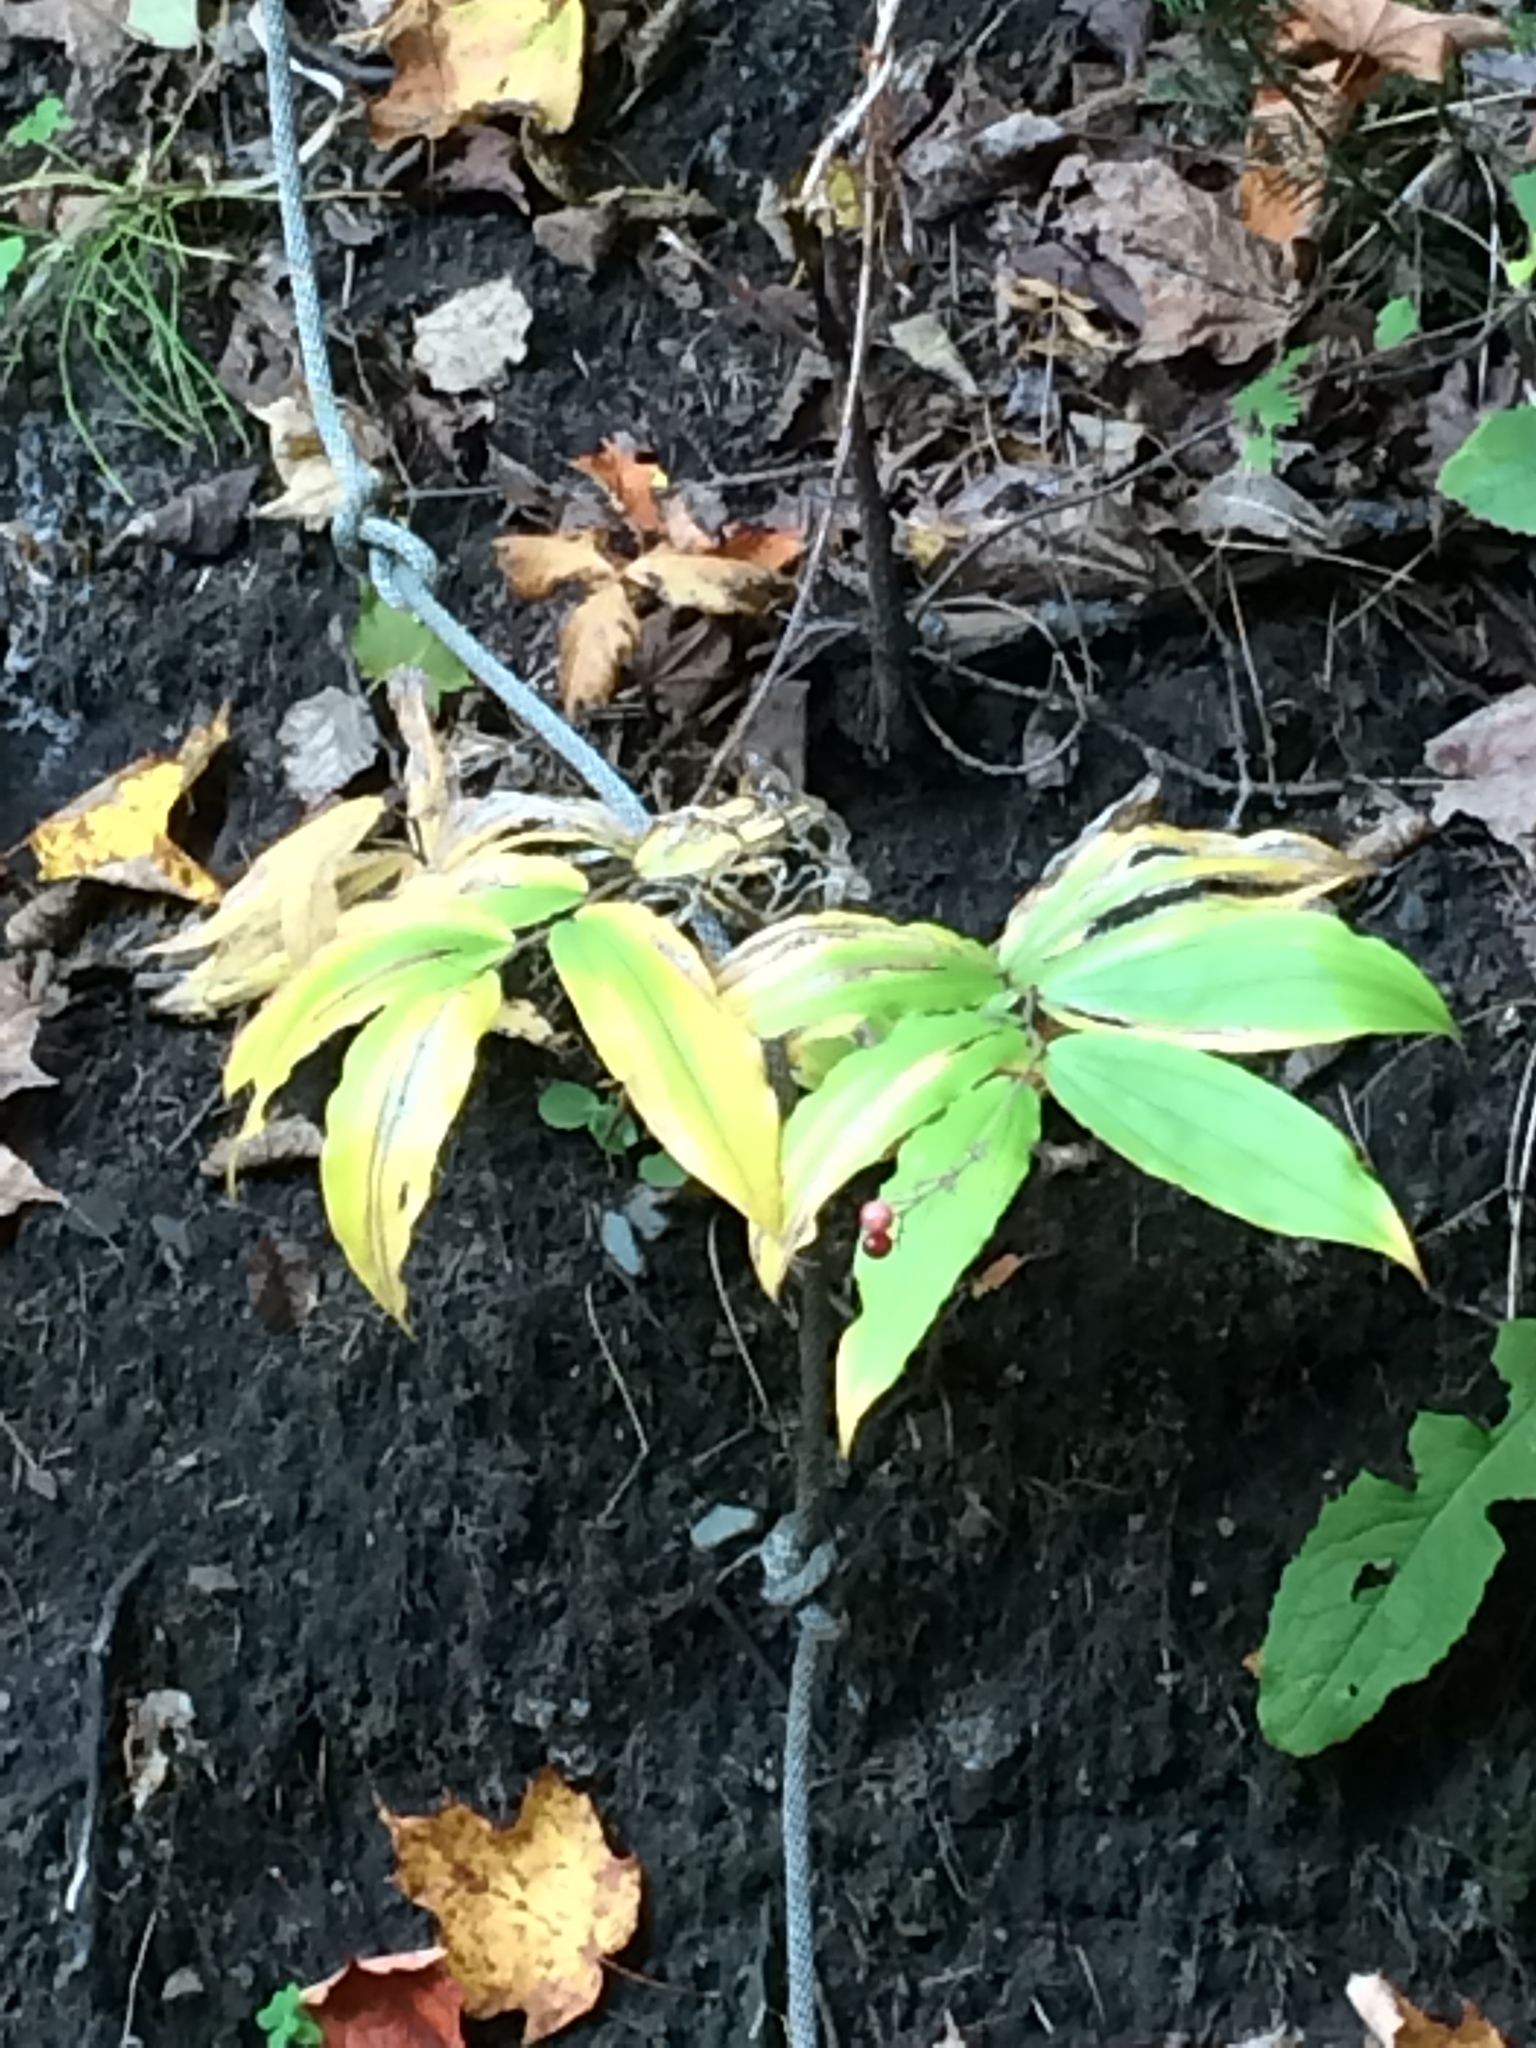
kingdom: Plantae
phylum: Tracheophyta
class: Liliopsida
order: Asparagales
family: Asparagaceae
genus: Maianthemum
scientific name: Maianthemum racemosum
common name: False spikenard
